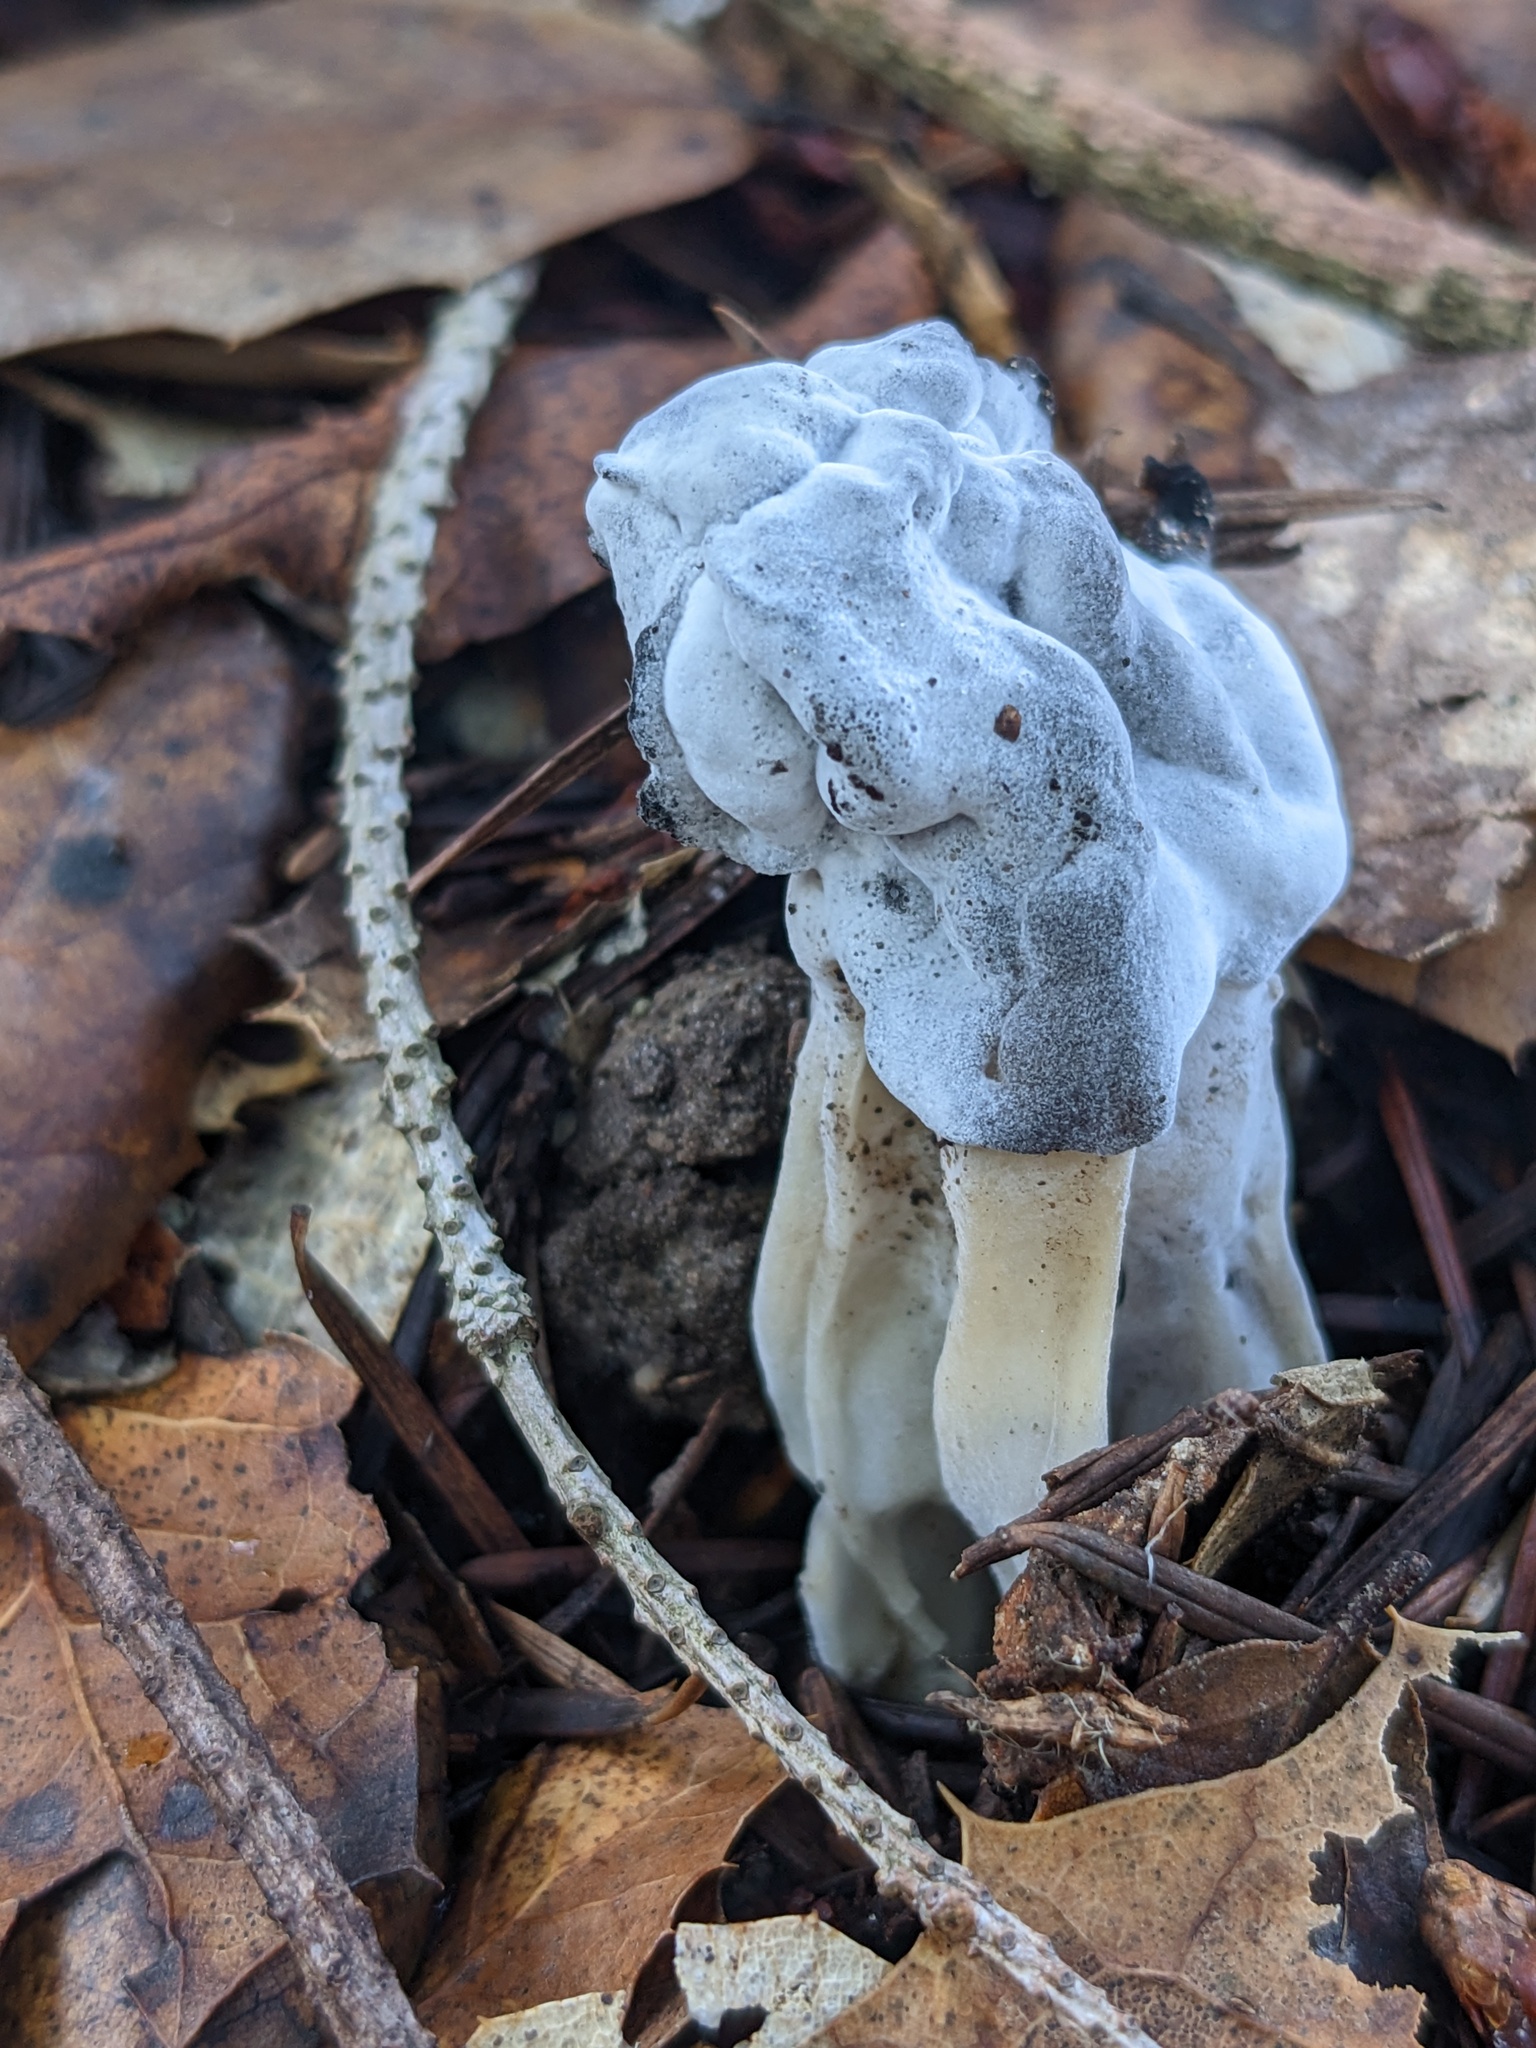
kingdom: Fungi
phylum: Ascomycota
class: Sordariomycetes
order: Hypocreales
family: Hypocreaceae
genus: Hypomyces
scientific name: Hypomyces cervinus
